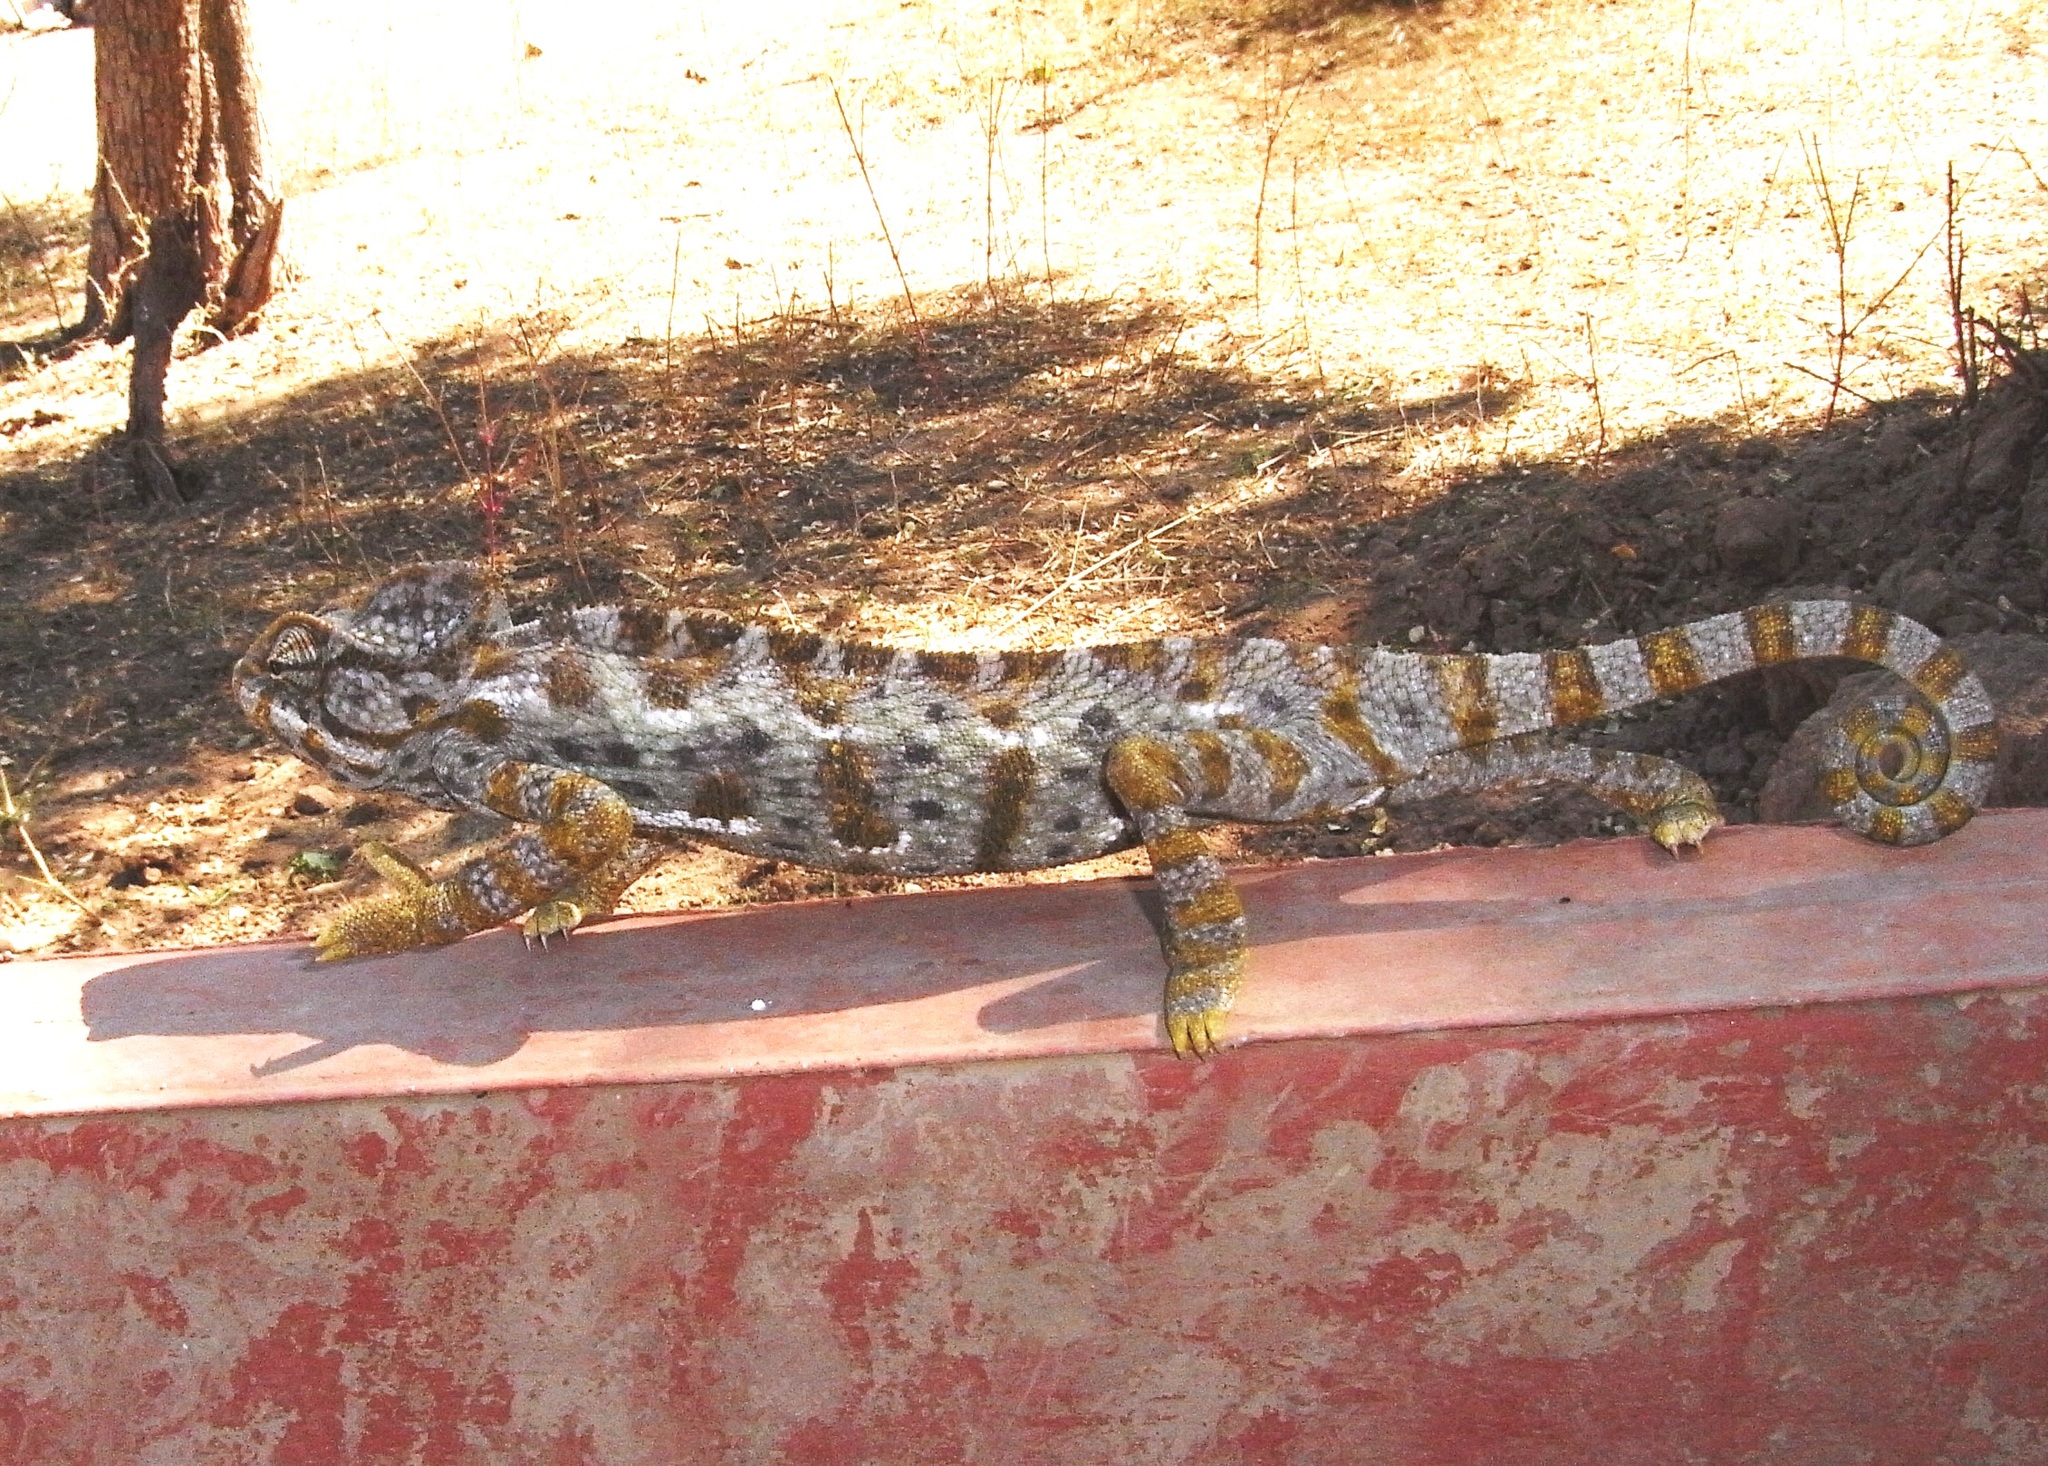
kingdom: Animalia
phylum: Chordata
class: Squamata
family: Chamaeleonidae
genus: Chamaeleo
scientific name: Chamaeleo arabicus
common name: Arabian chameleon
